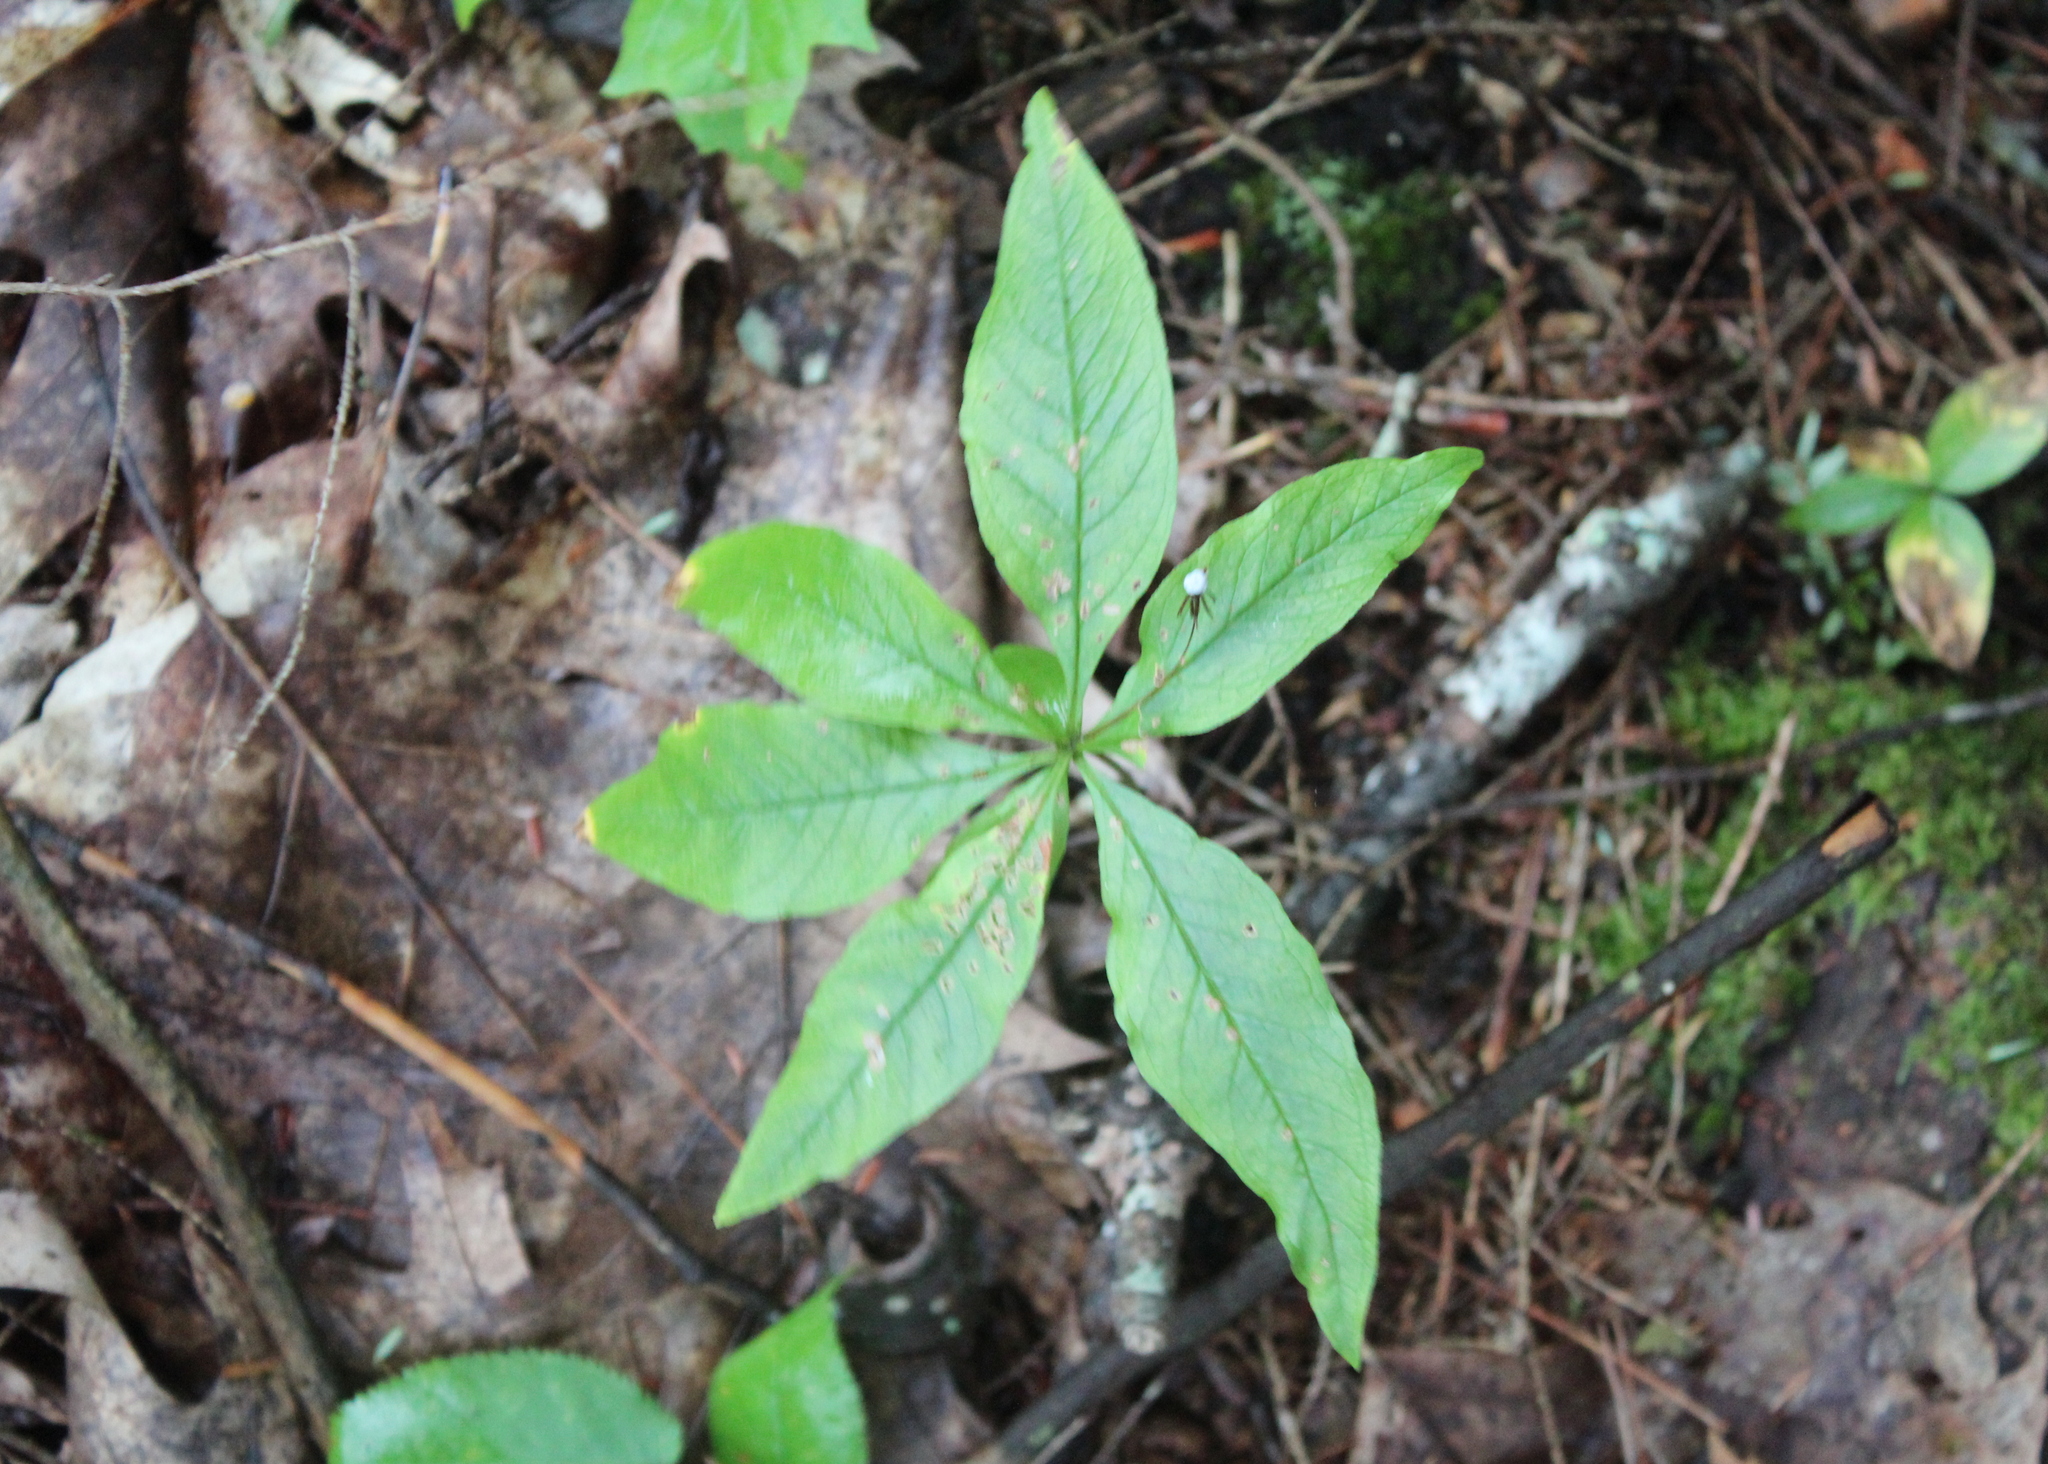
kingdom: Plantae
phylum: Tracheophyta
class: Magnoliopsida
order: Ericales
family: Primulaceae
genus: Lysimachia
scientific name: Lysimachia borealis
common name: American starflower
